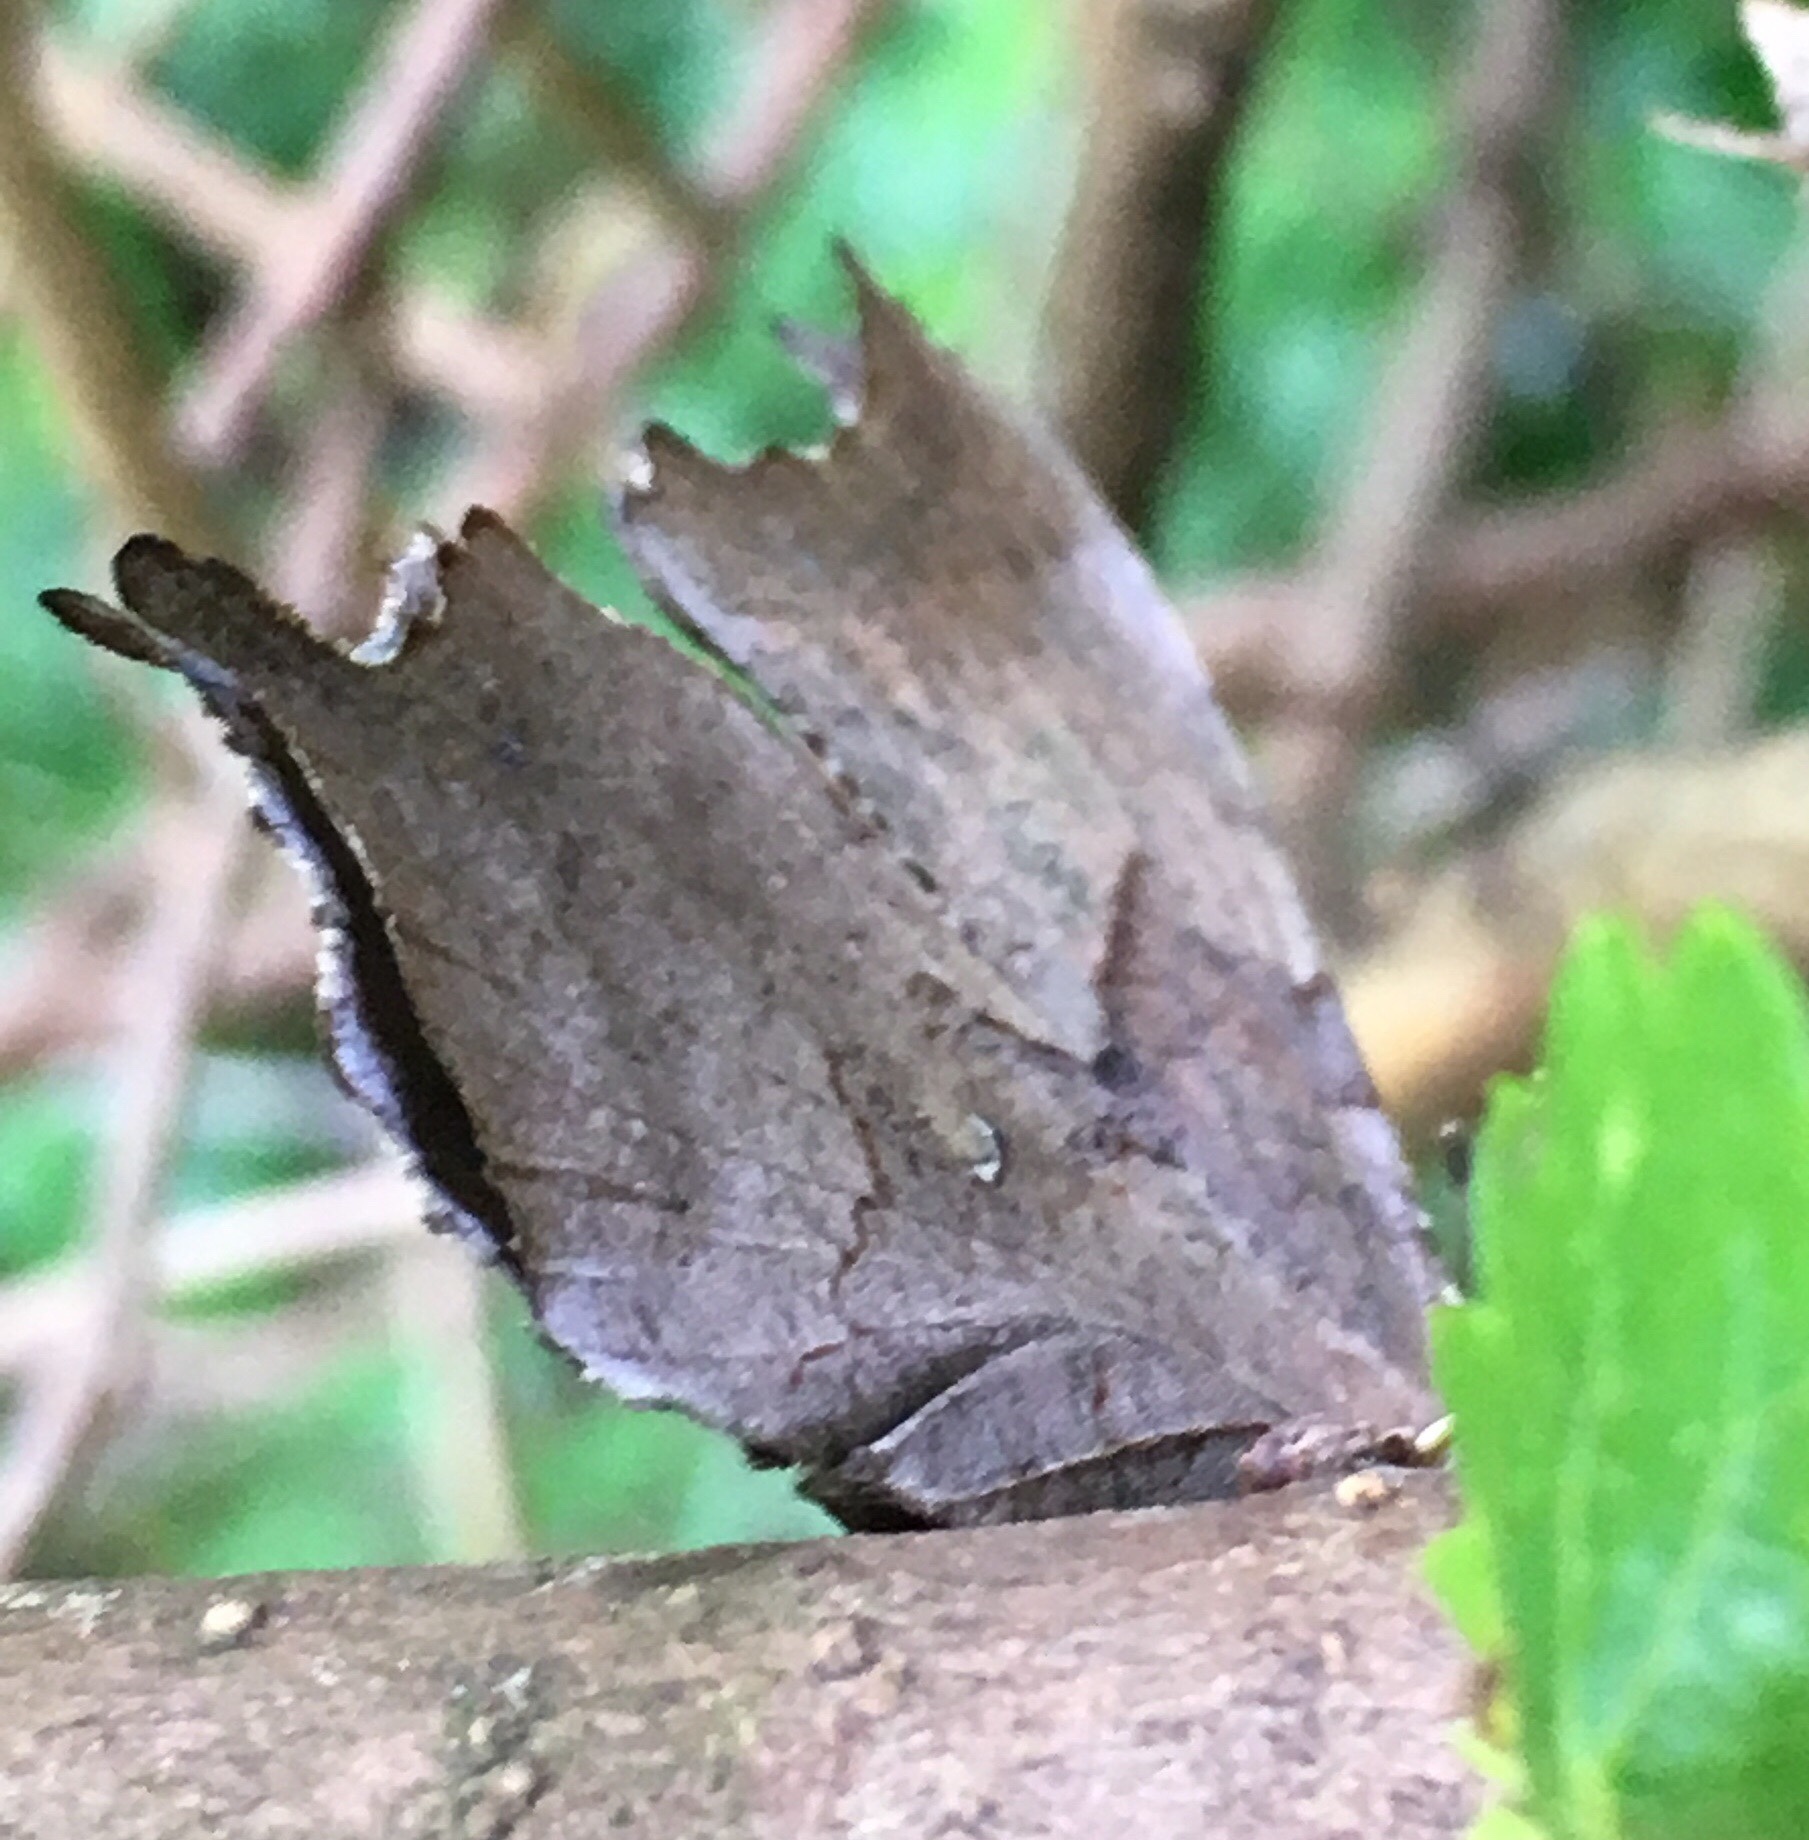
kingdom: Animalia
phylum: Arthropoda
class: Insecta
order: Lepidoptera
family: Nymphalidae
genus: Polygonia
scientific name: Polygonia interrogationis
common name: Question mark
